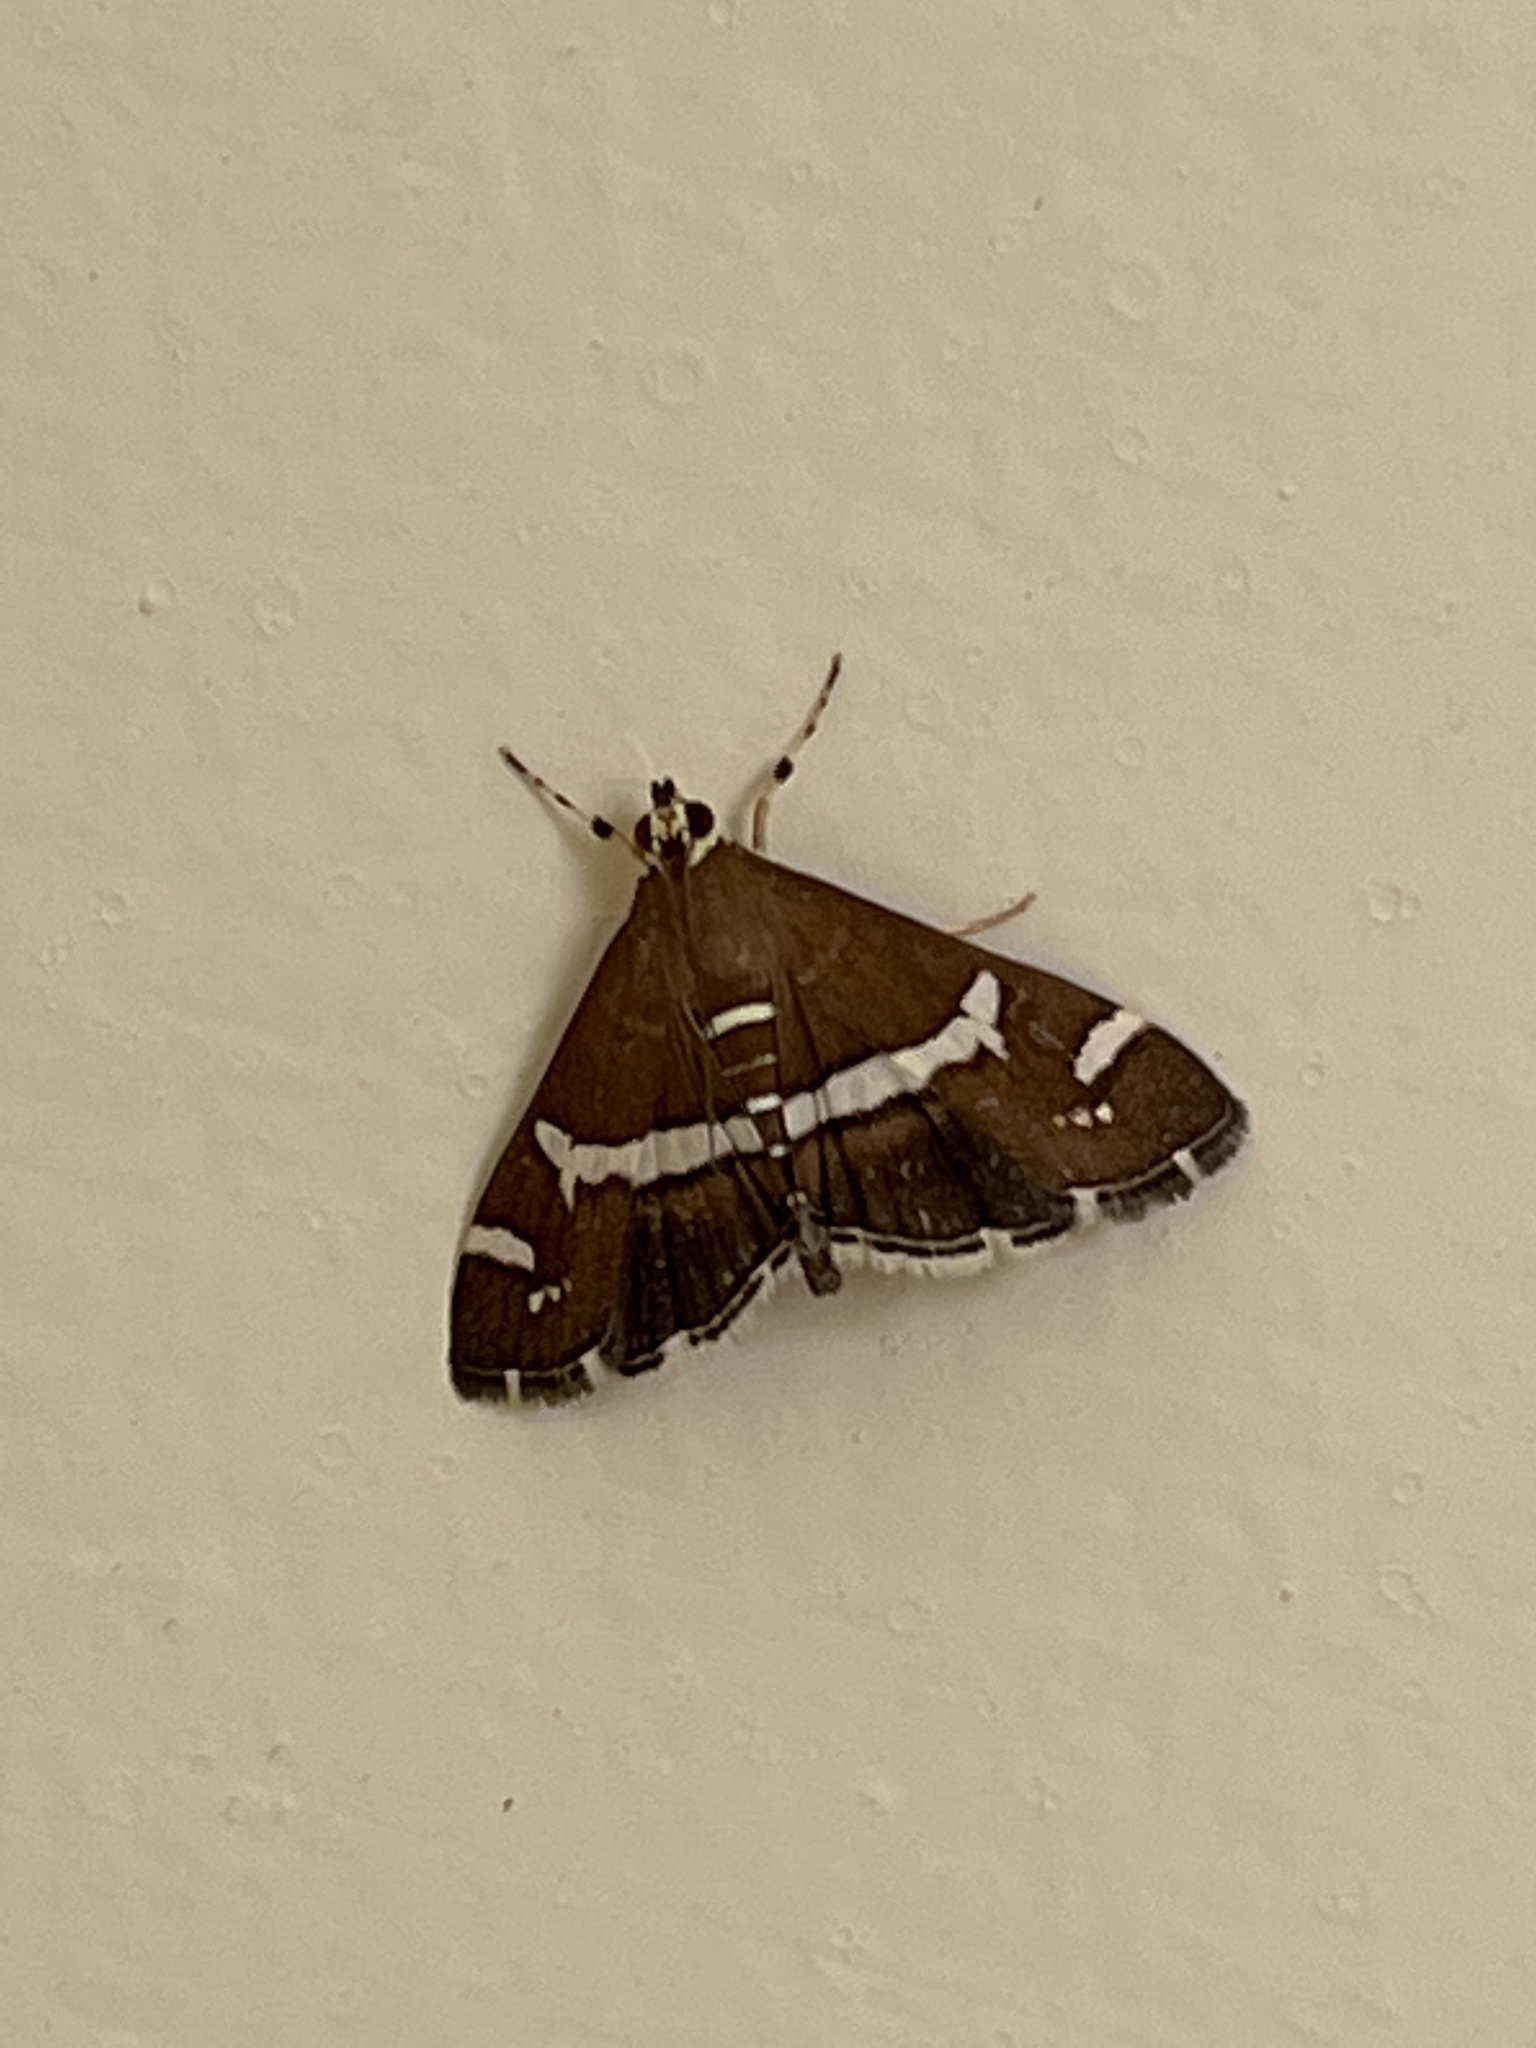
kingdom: Animalia
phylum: Arthropoda
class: Insecta
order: Lepidoptera
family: Crambidae
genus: Spoladea
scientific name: Spoladea recurvalis
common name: Beet webworm moth
